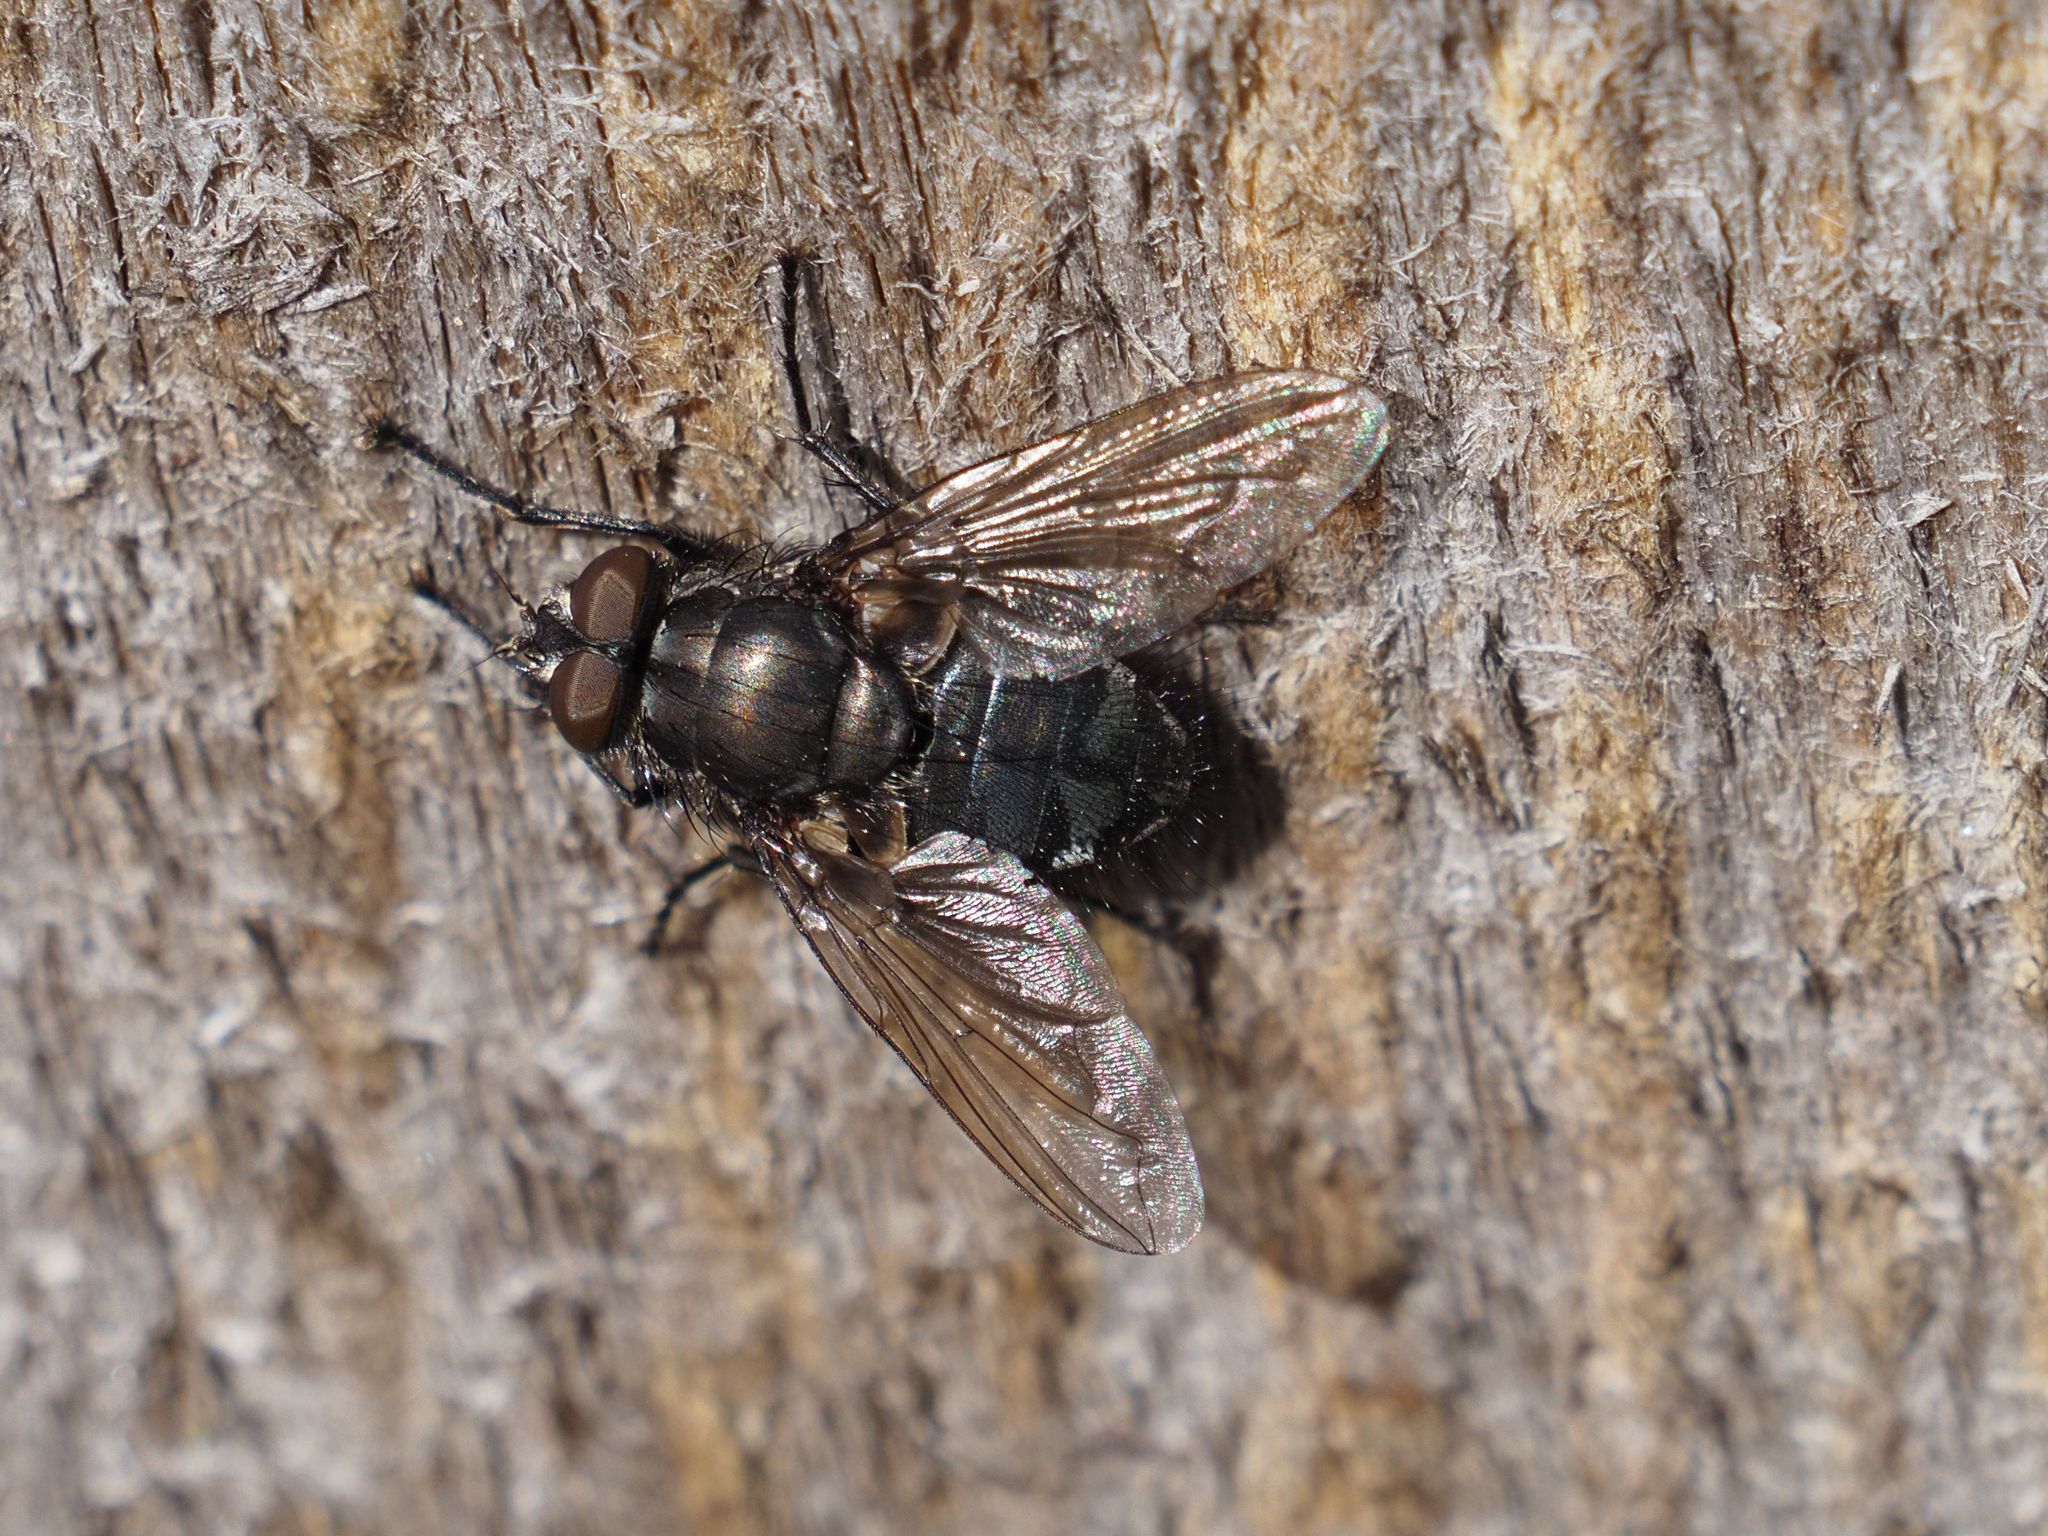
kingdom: Animalia
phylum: Arthropoda
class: Insecta
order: Diptera
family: Polleniidae
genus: Pollenia
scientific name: Pollenia vagabunda
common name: Vagabund cluster fly
